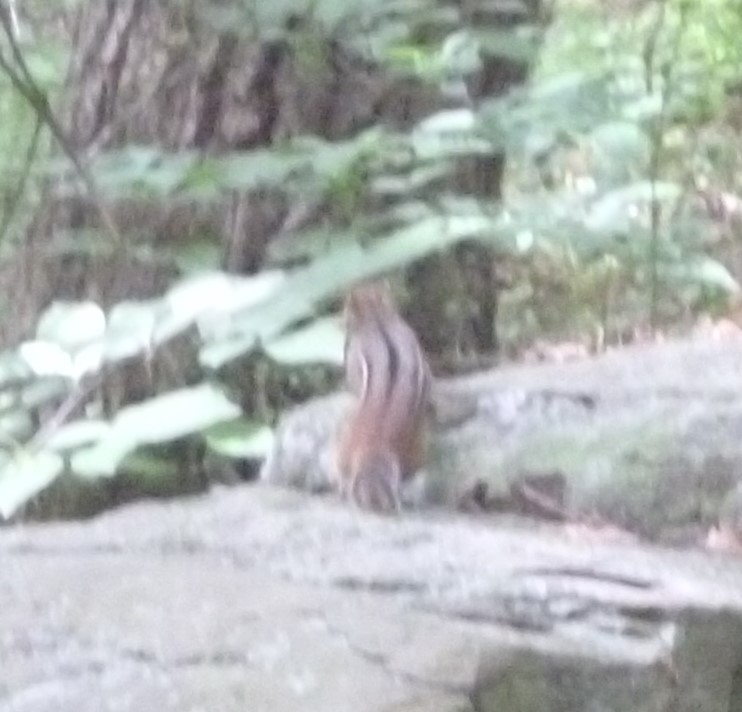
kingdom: Animalia
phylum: Chordata
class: Mammalia
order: Rodentia
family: Sciuridae
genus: Tamias
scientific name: Tamias striatus
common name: Eastern chipmunk
